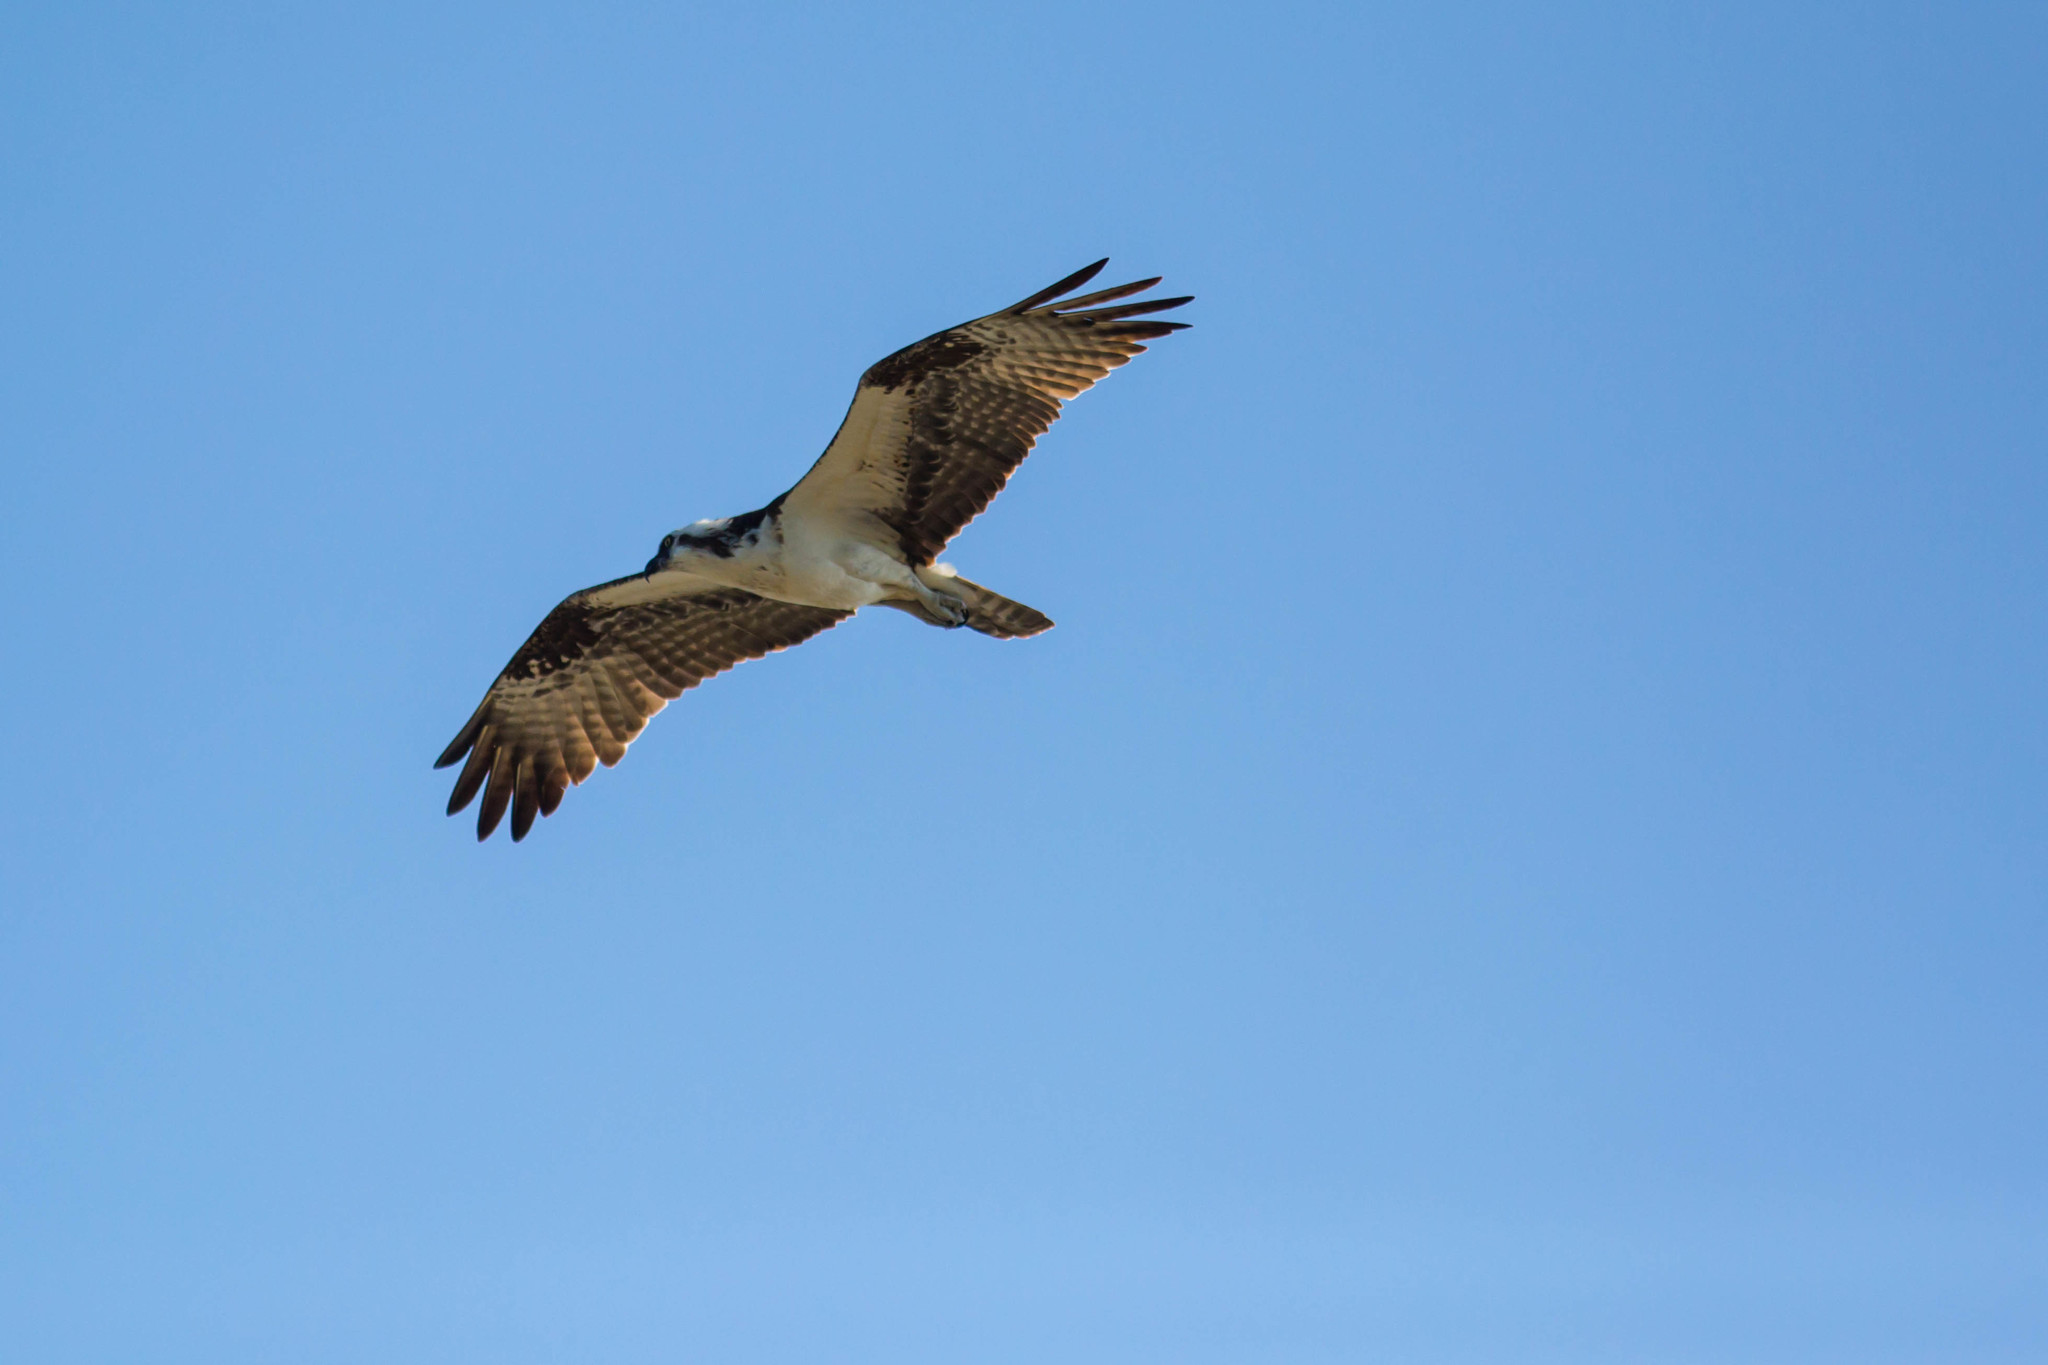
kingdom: Animalia
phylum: Chordata
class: Aves
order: Accipitriformes
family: Pandionidae
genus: Pandion
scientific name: Pandion haliaetus
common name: Osprey
